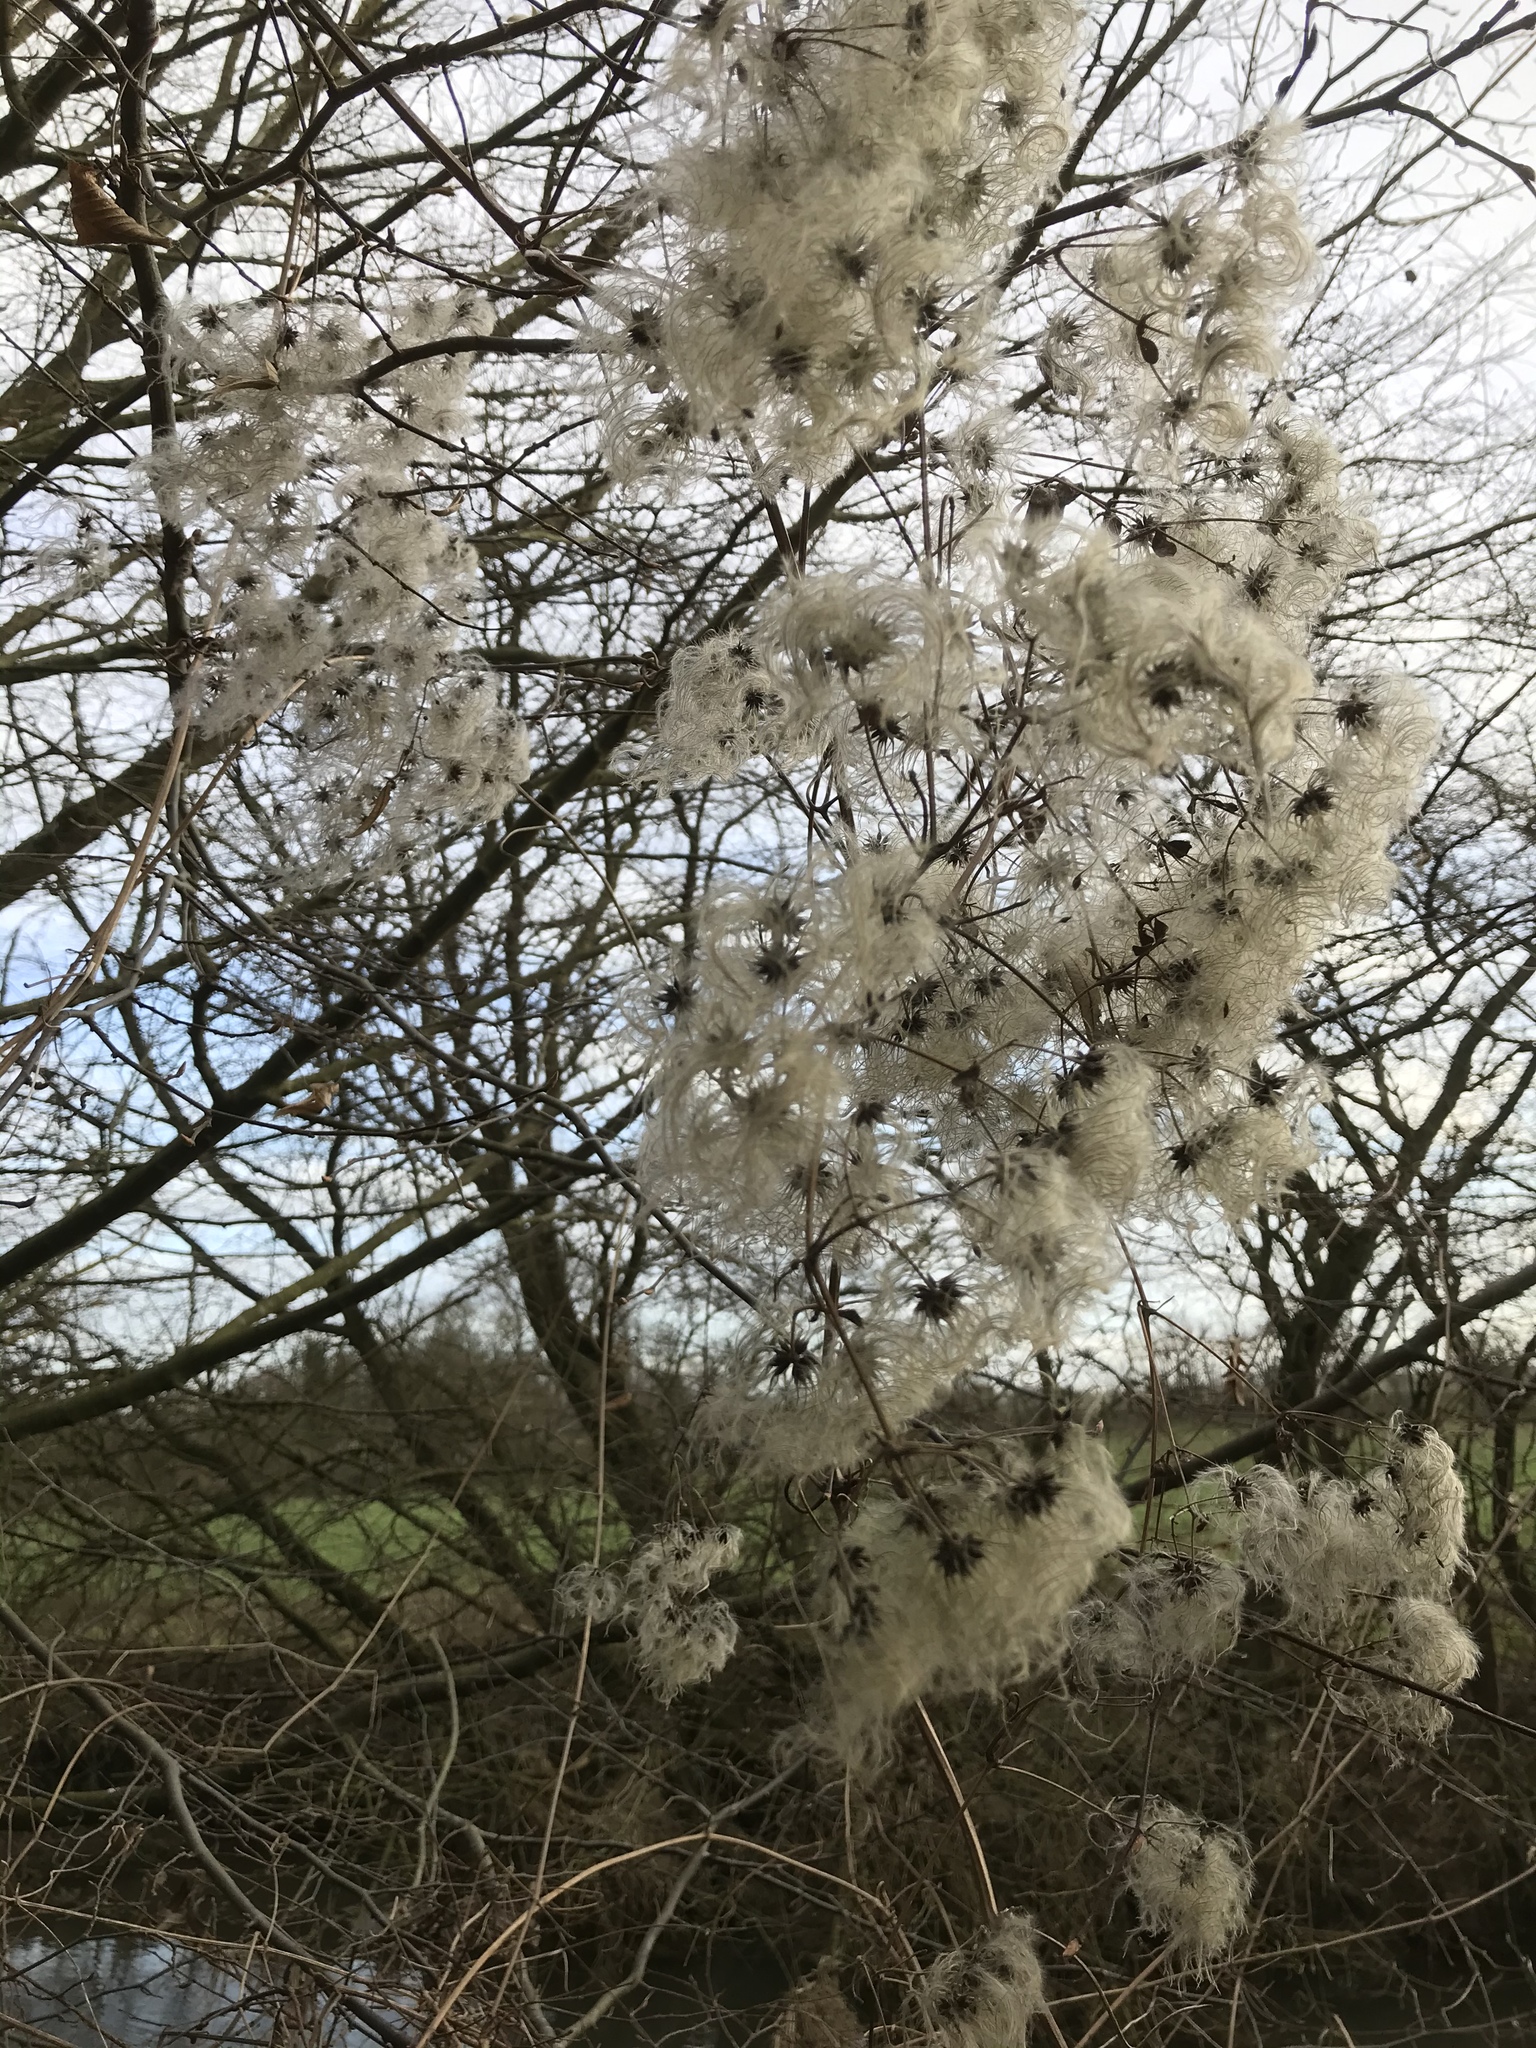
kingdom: Plantae
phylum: Tracheophyta
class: Magnoliopsida
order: Ranunculales
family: Ranunculaceae
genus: Clematis
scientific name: Clematis vitalba
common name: Evergreen clematis
